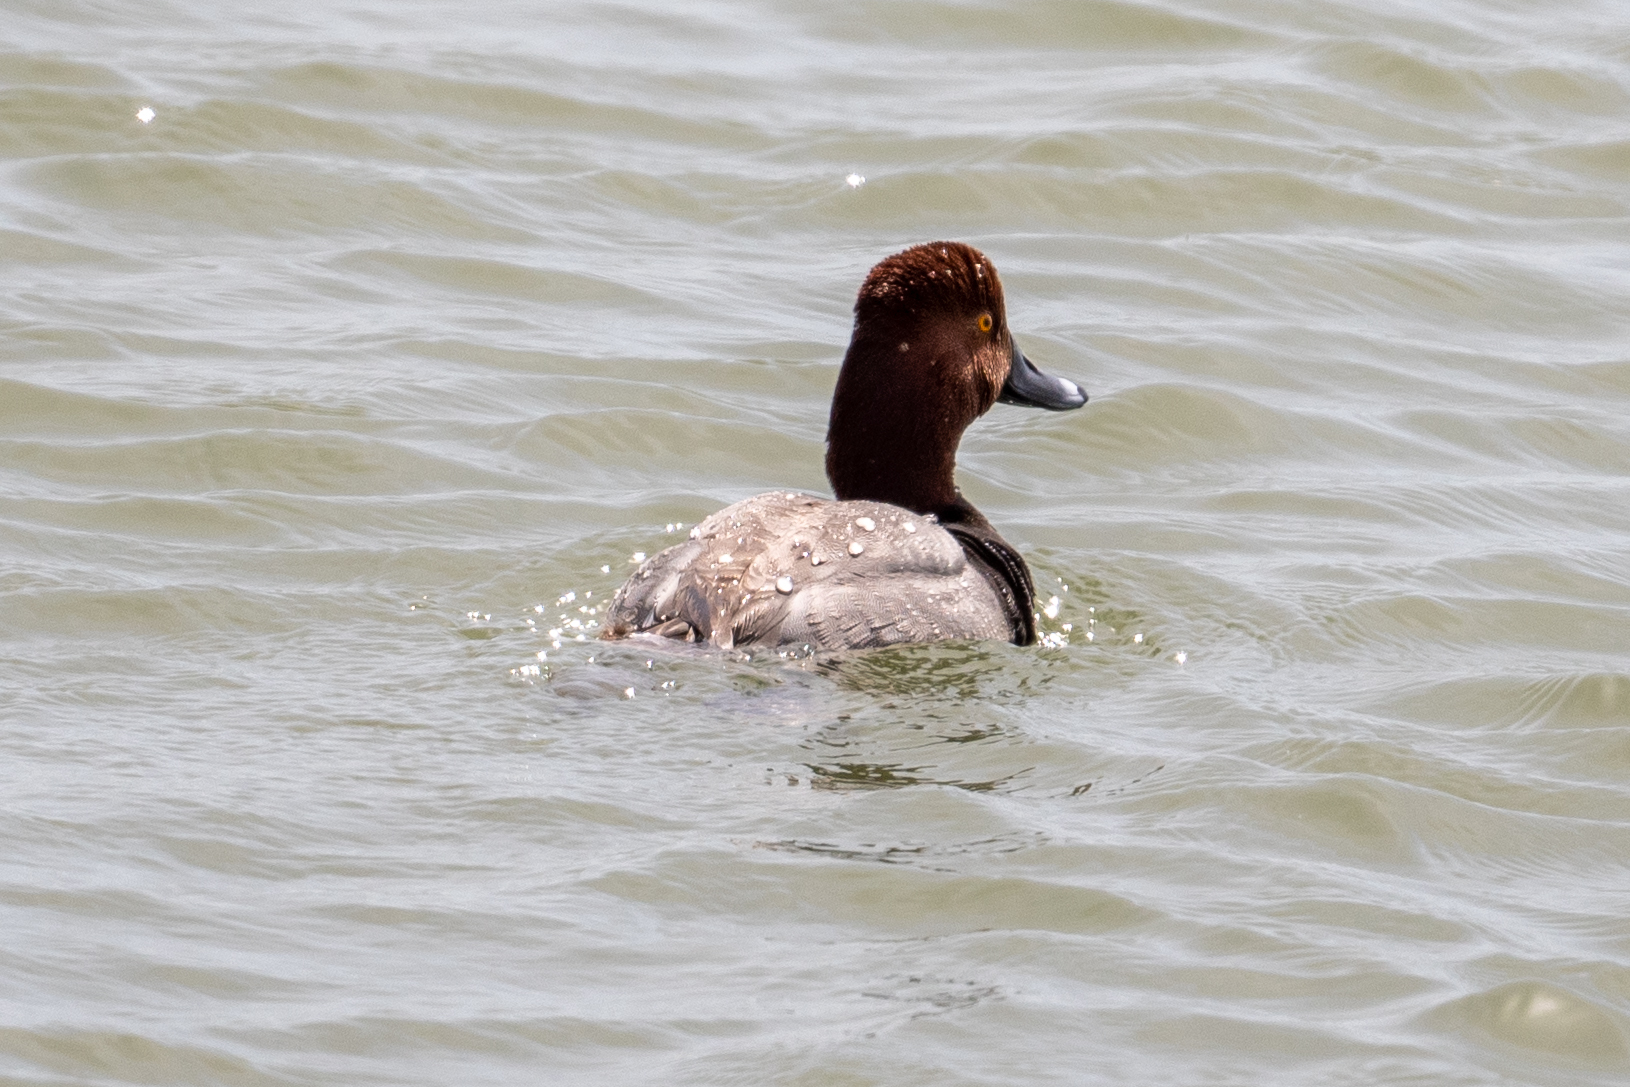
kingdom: Animalia
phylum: Chordata
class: Aves
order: Anseriformes
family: Anatidae
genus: Aythya
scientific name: Aythya americana
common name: Redhead
